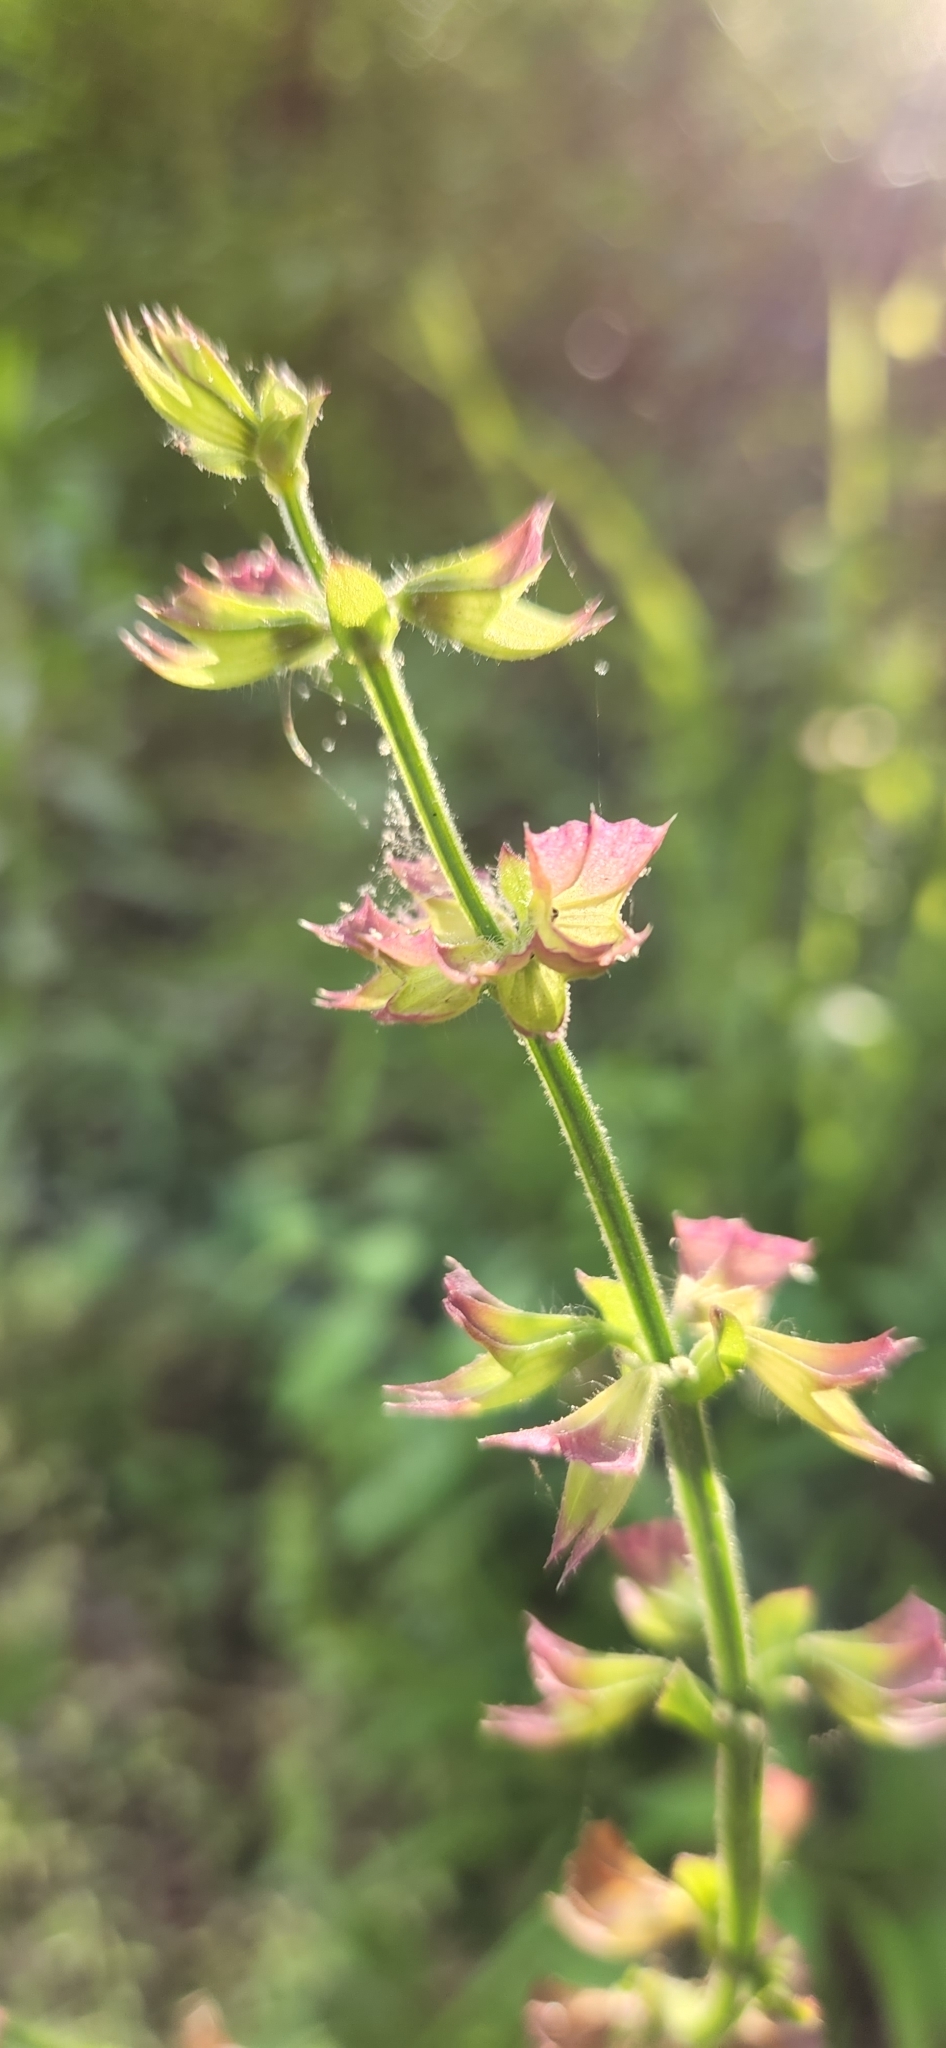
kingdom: Plantae
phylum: Tracheophyta
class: Magnoliopsida
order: Lamiales
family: Lamiaceae
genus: Salvia
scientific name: Salvia lyrata
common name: Cancerweed
